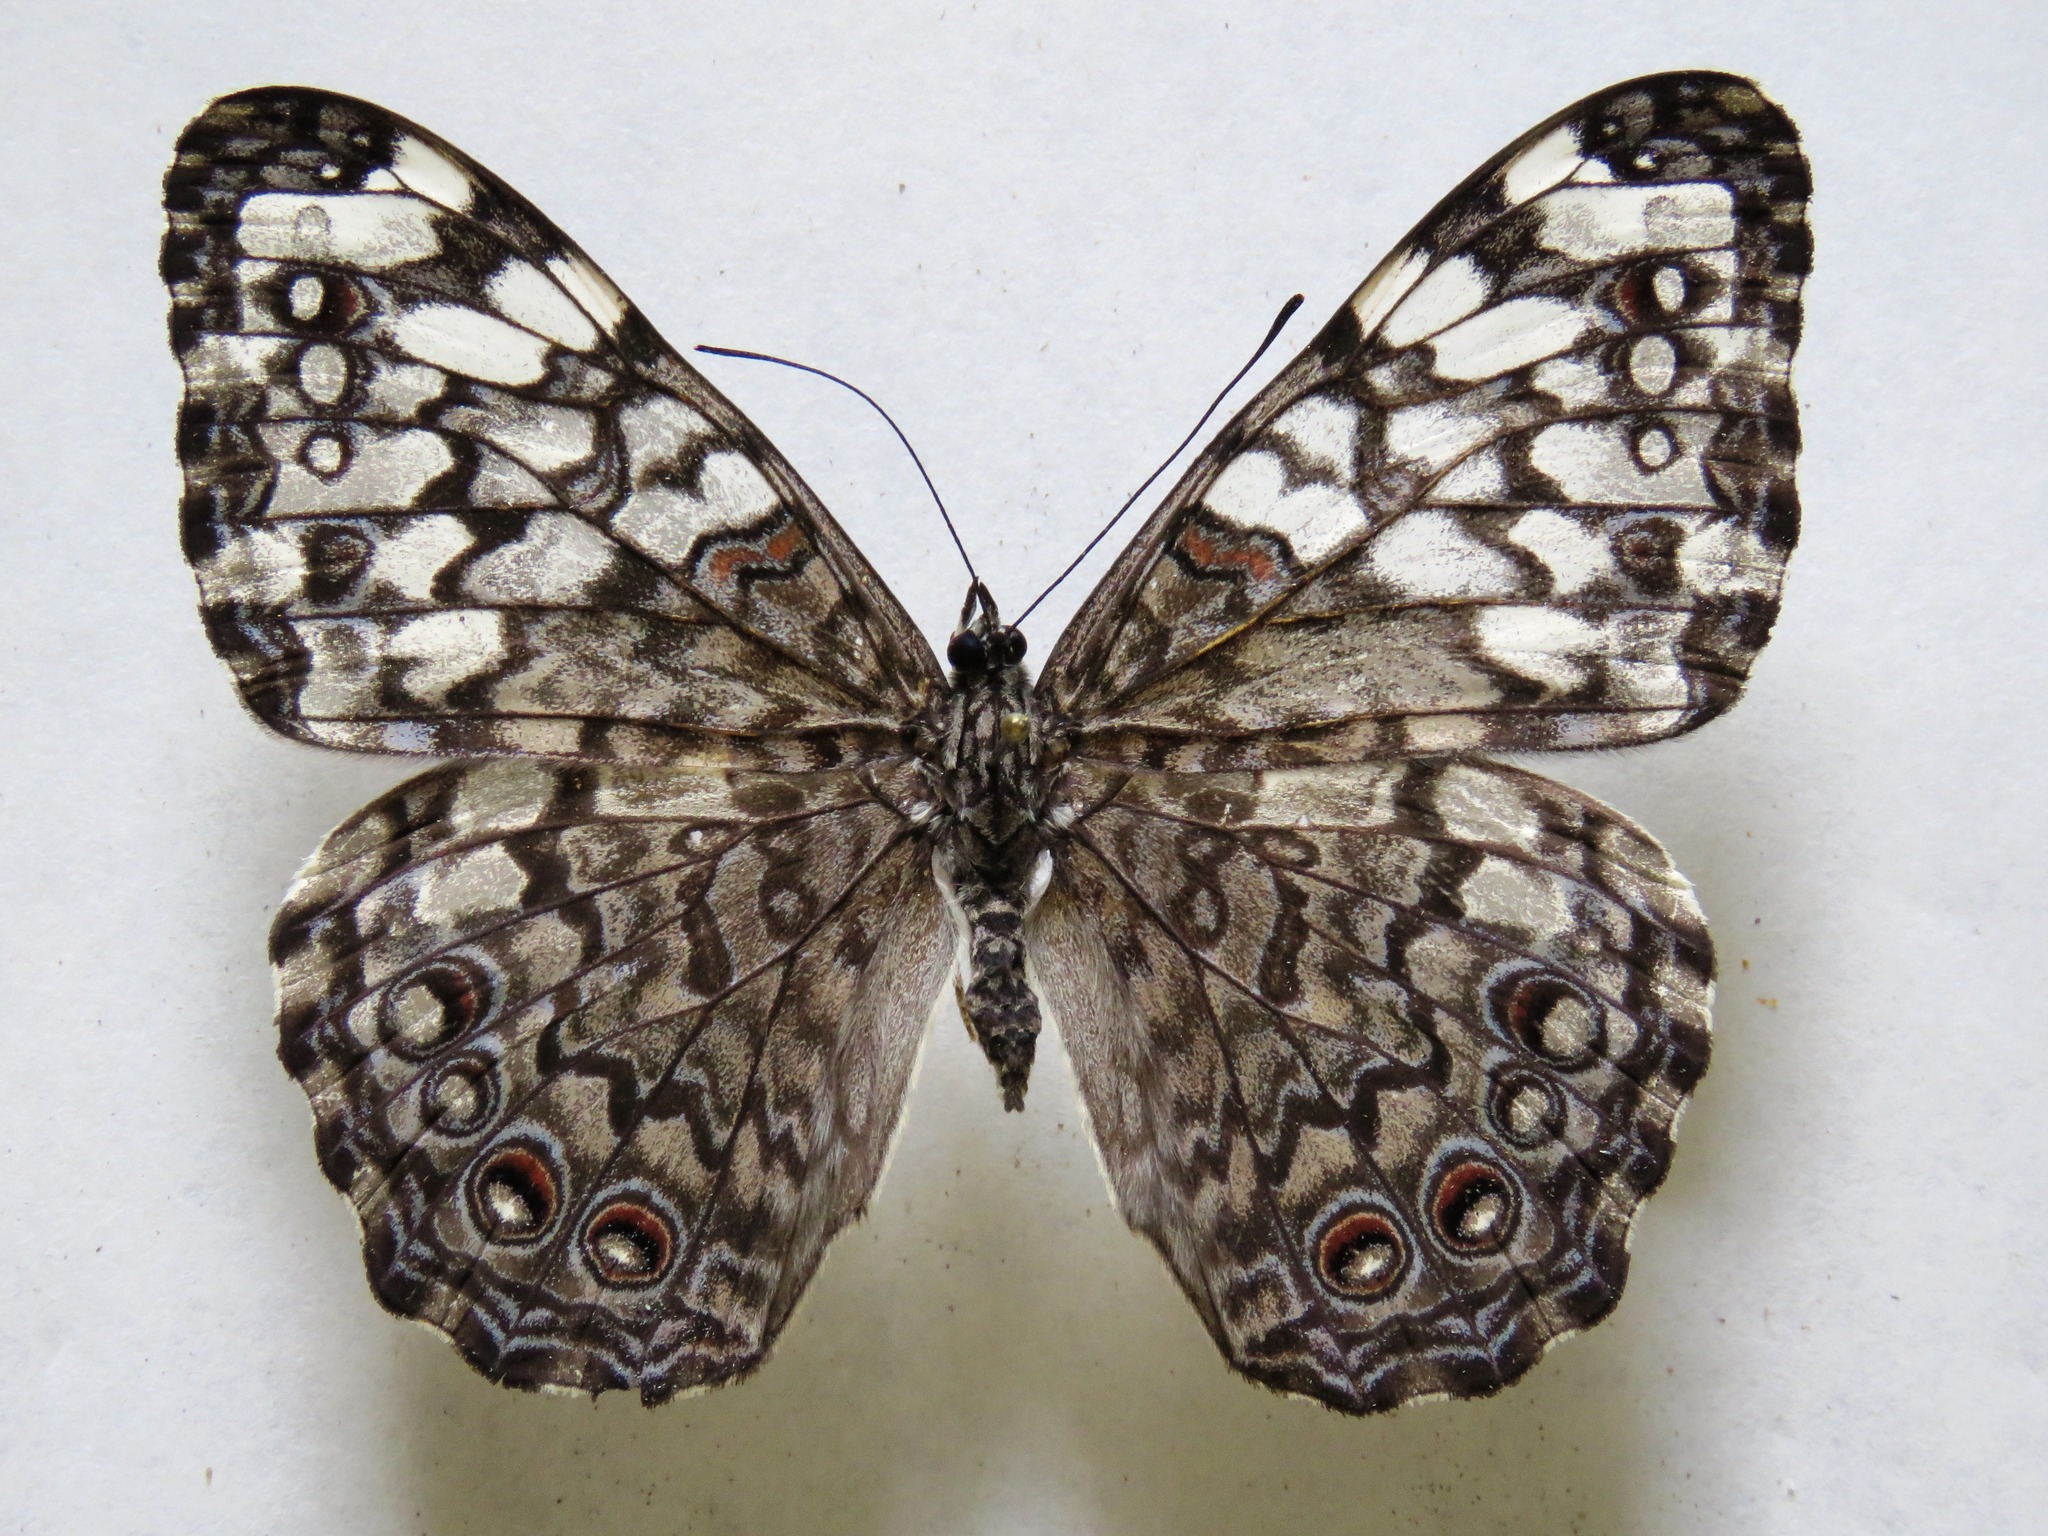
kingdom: Animalia
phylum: Arthropoda
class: Insecta
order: Lepidoptera
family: Nymphalidae
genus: Hamadryas
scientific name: Hamadryas februa
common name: Gray cracker
